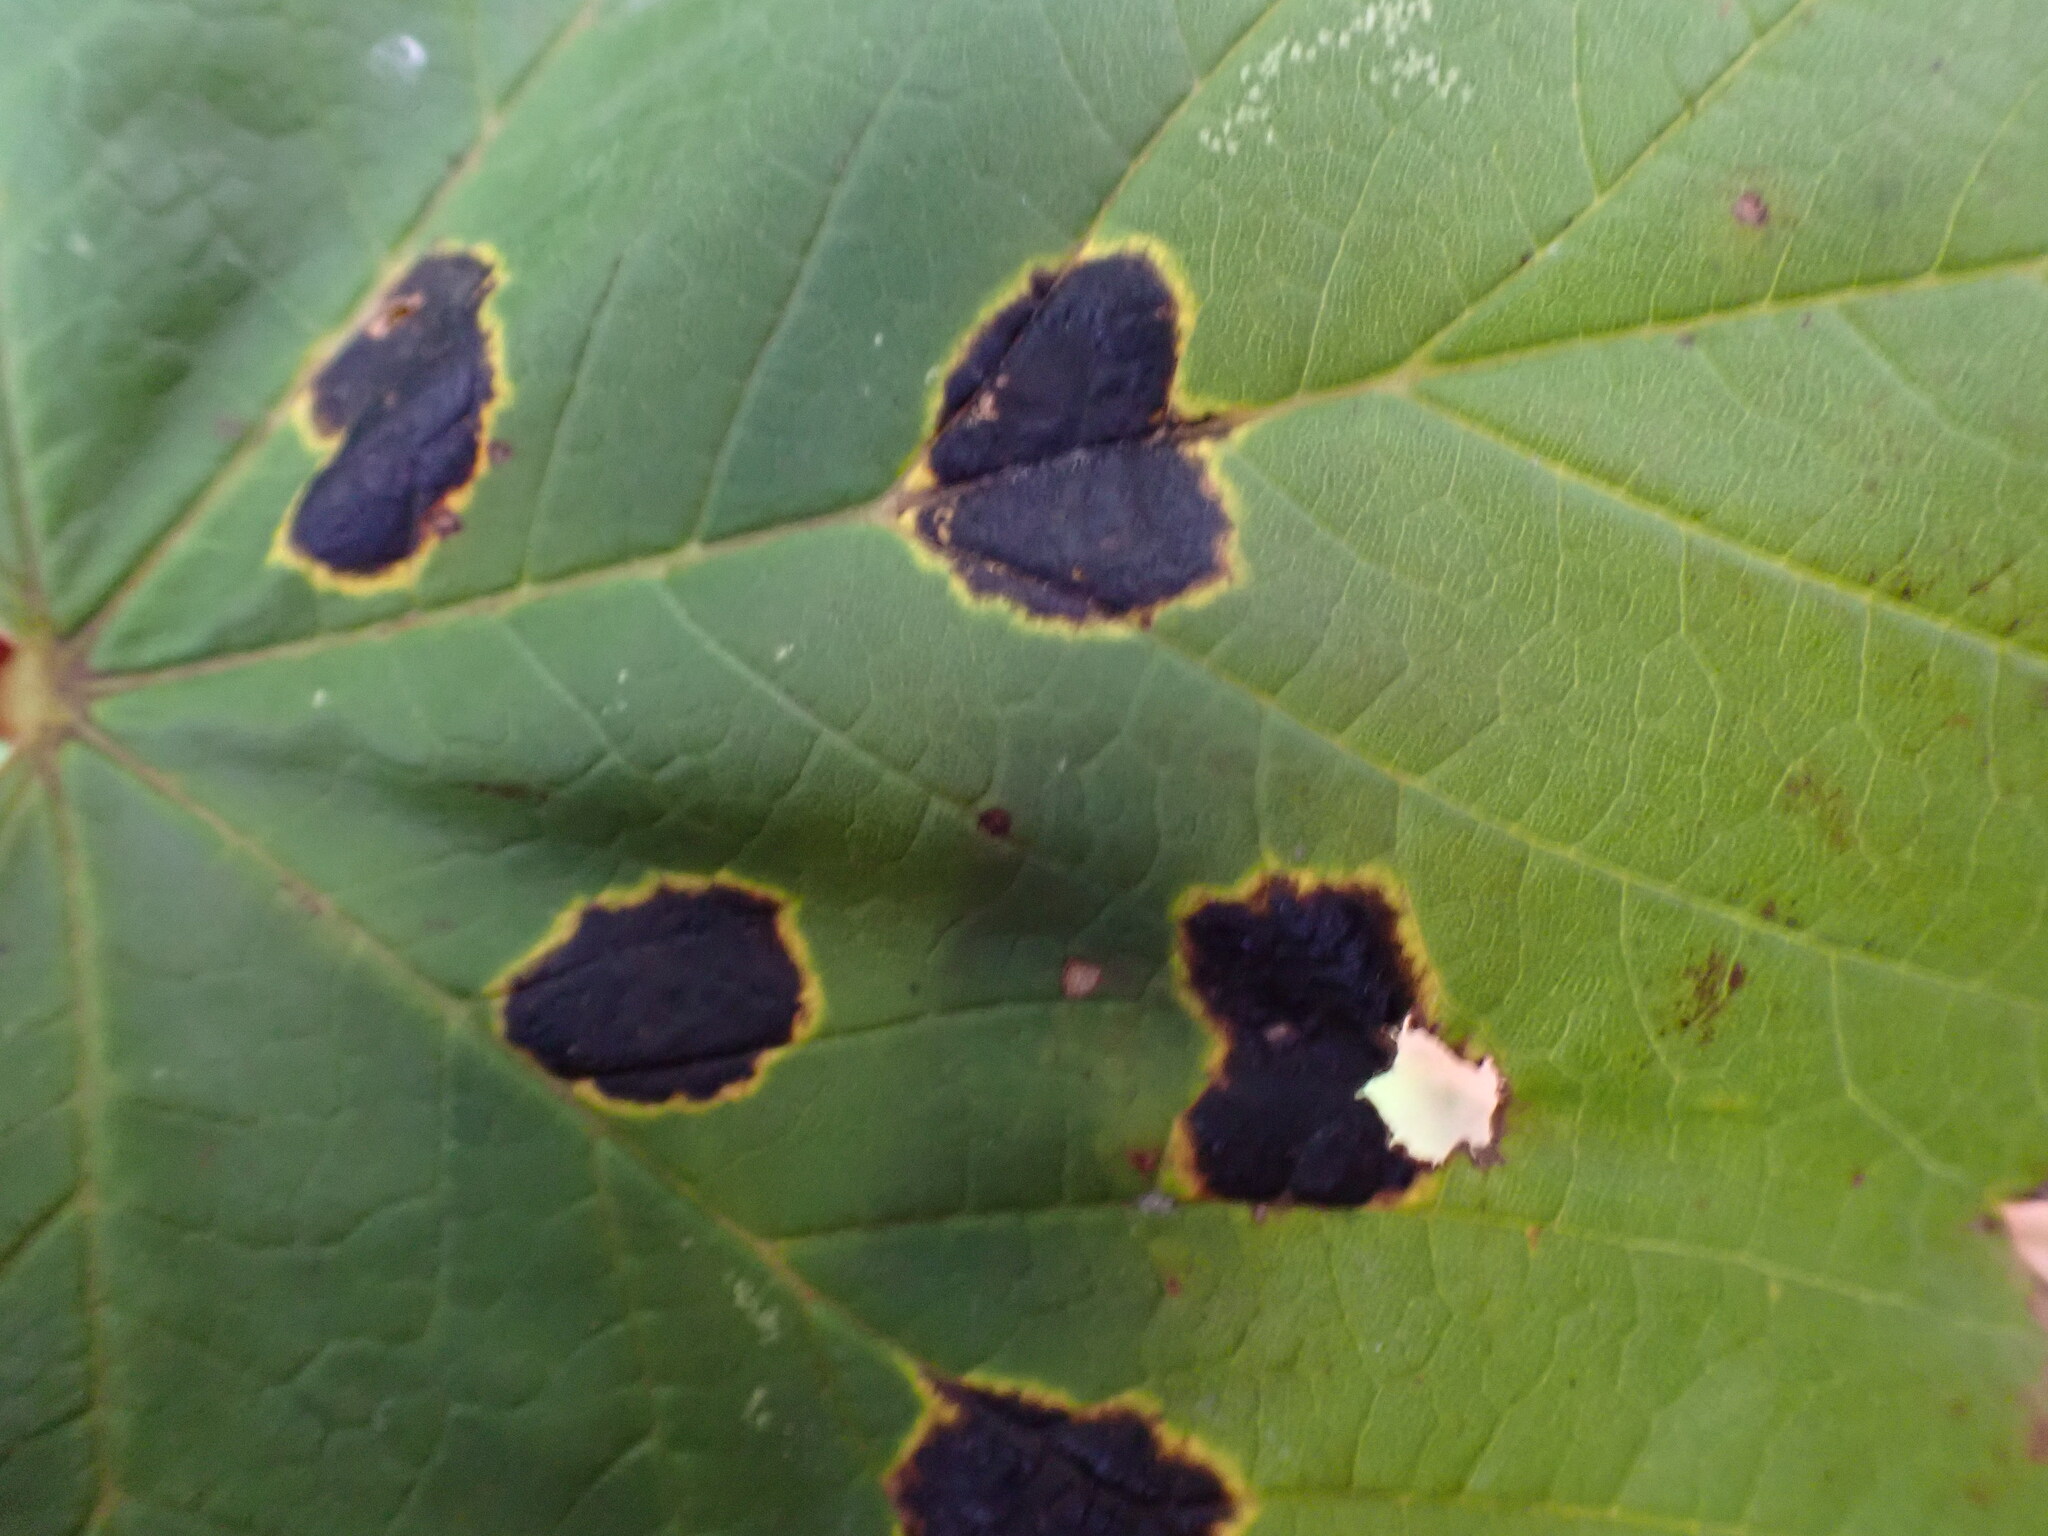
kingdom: Fungi
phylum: Ascomycota
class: Leotiomycetes
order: Rhytismatales
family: Rhytismataceae
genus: Rhytisma
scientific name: Rhytisma acerinum
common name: European tar spot
